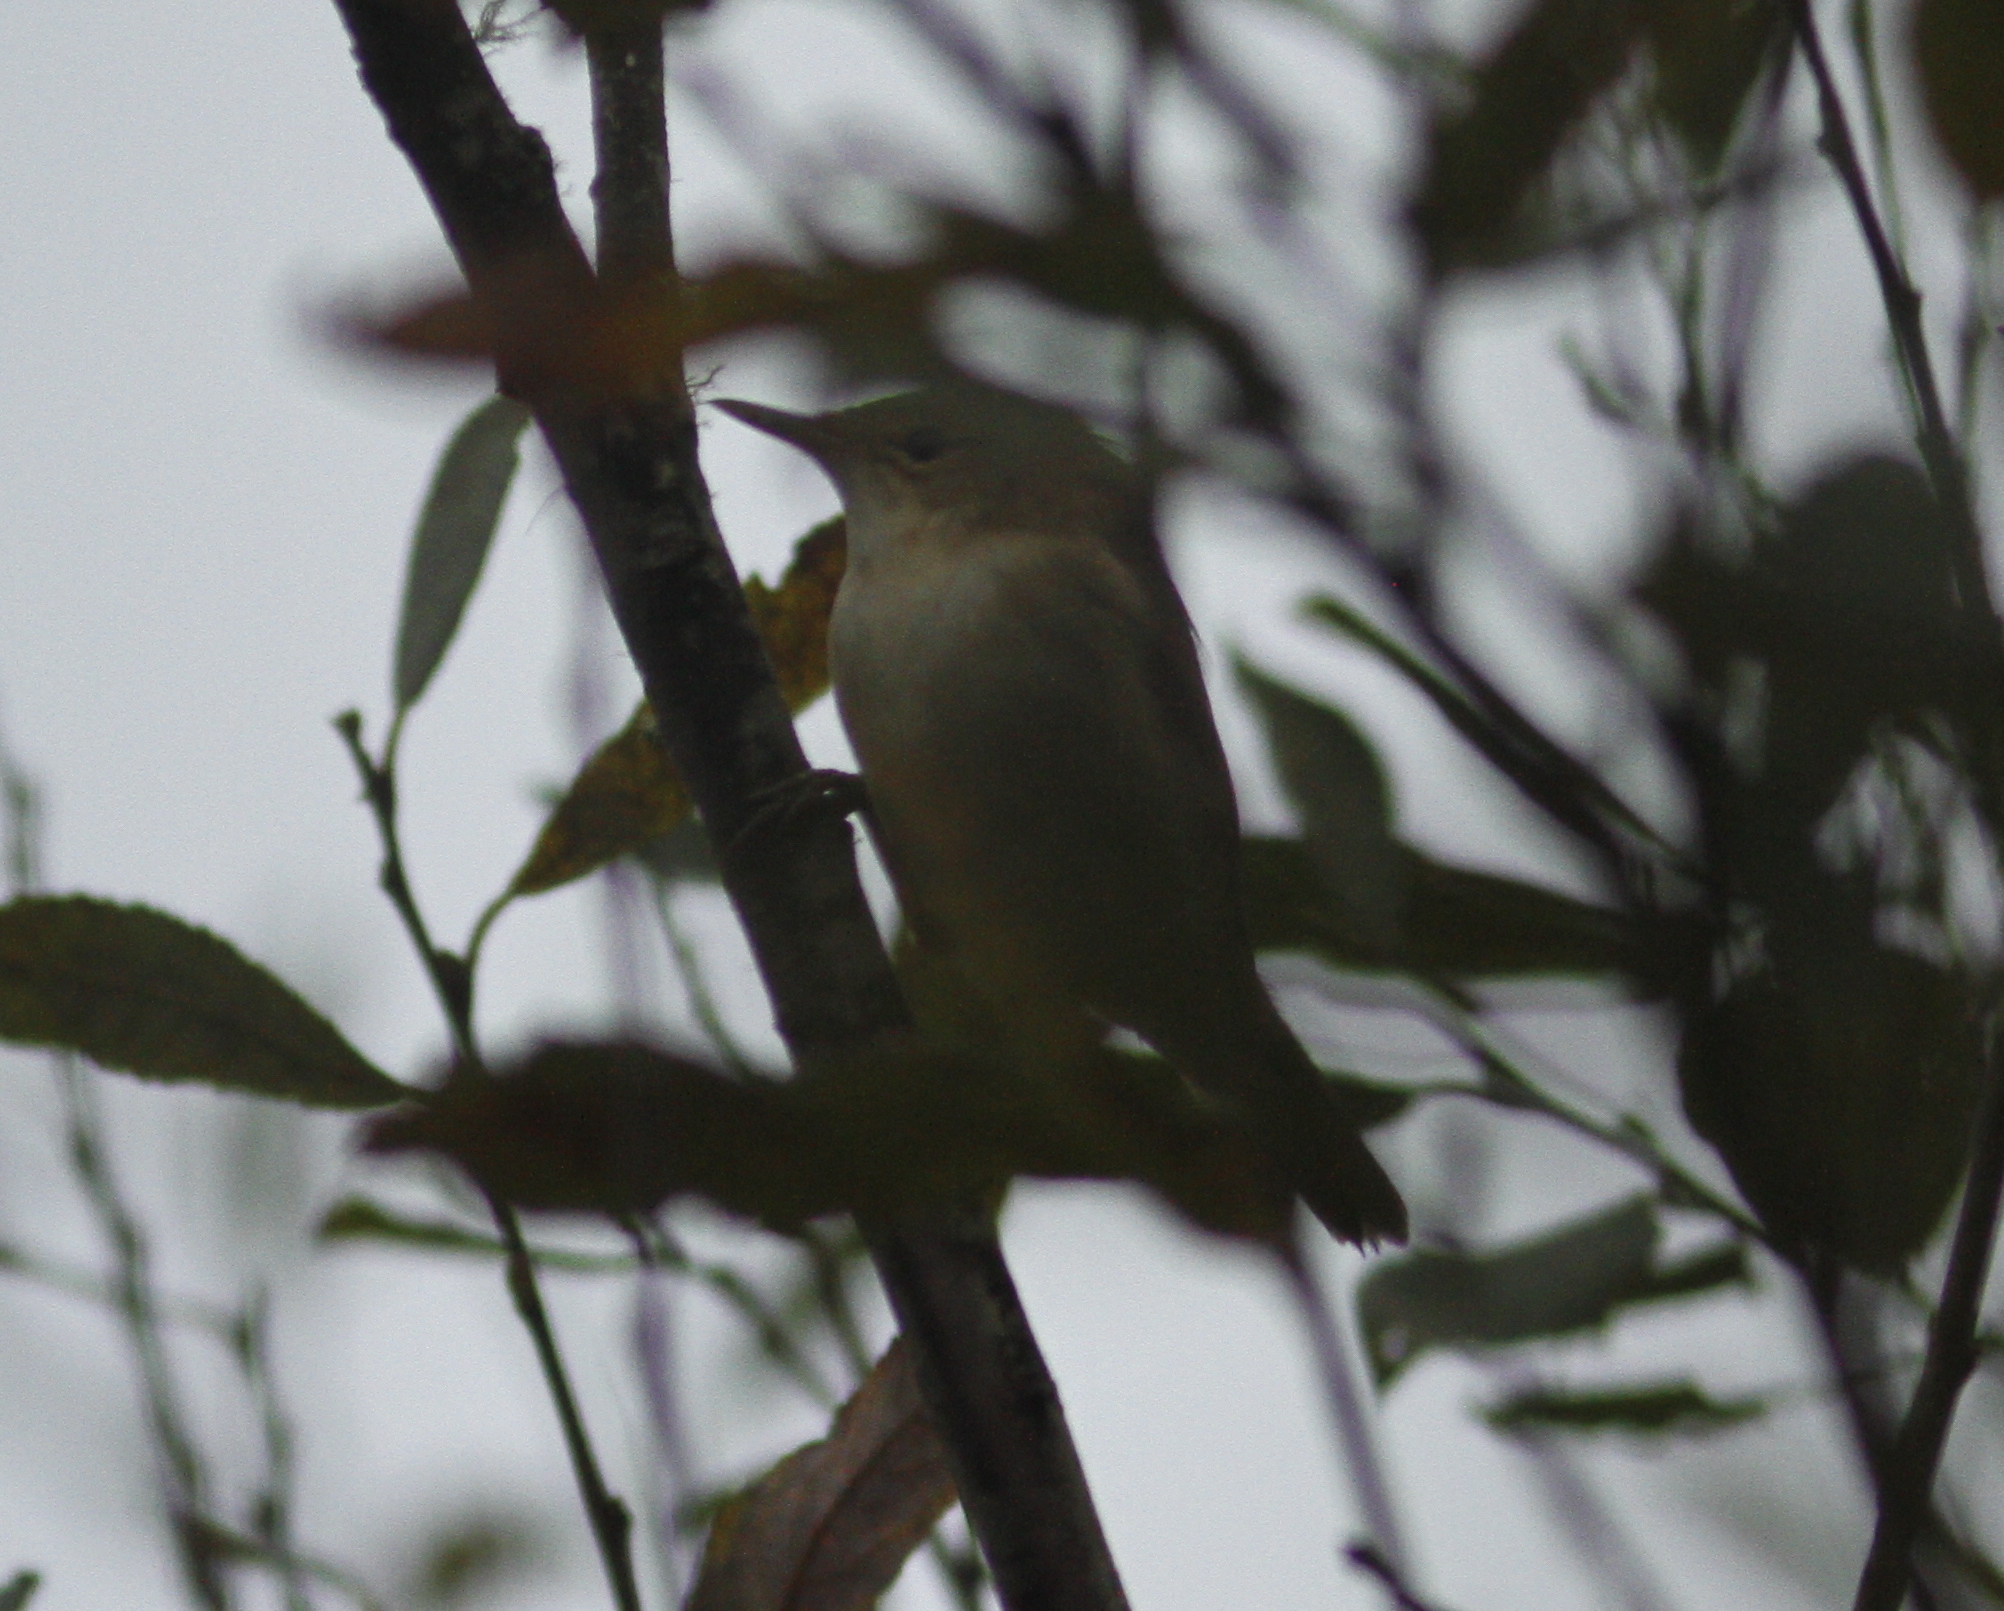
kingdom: Animalia
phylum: Chordata
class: Aves
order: Passeriformes
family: Acrocephalidae
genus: Acrocephalus
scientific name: Acrocephalus scirpaceus
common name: Eurasian reed warbler
